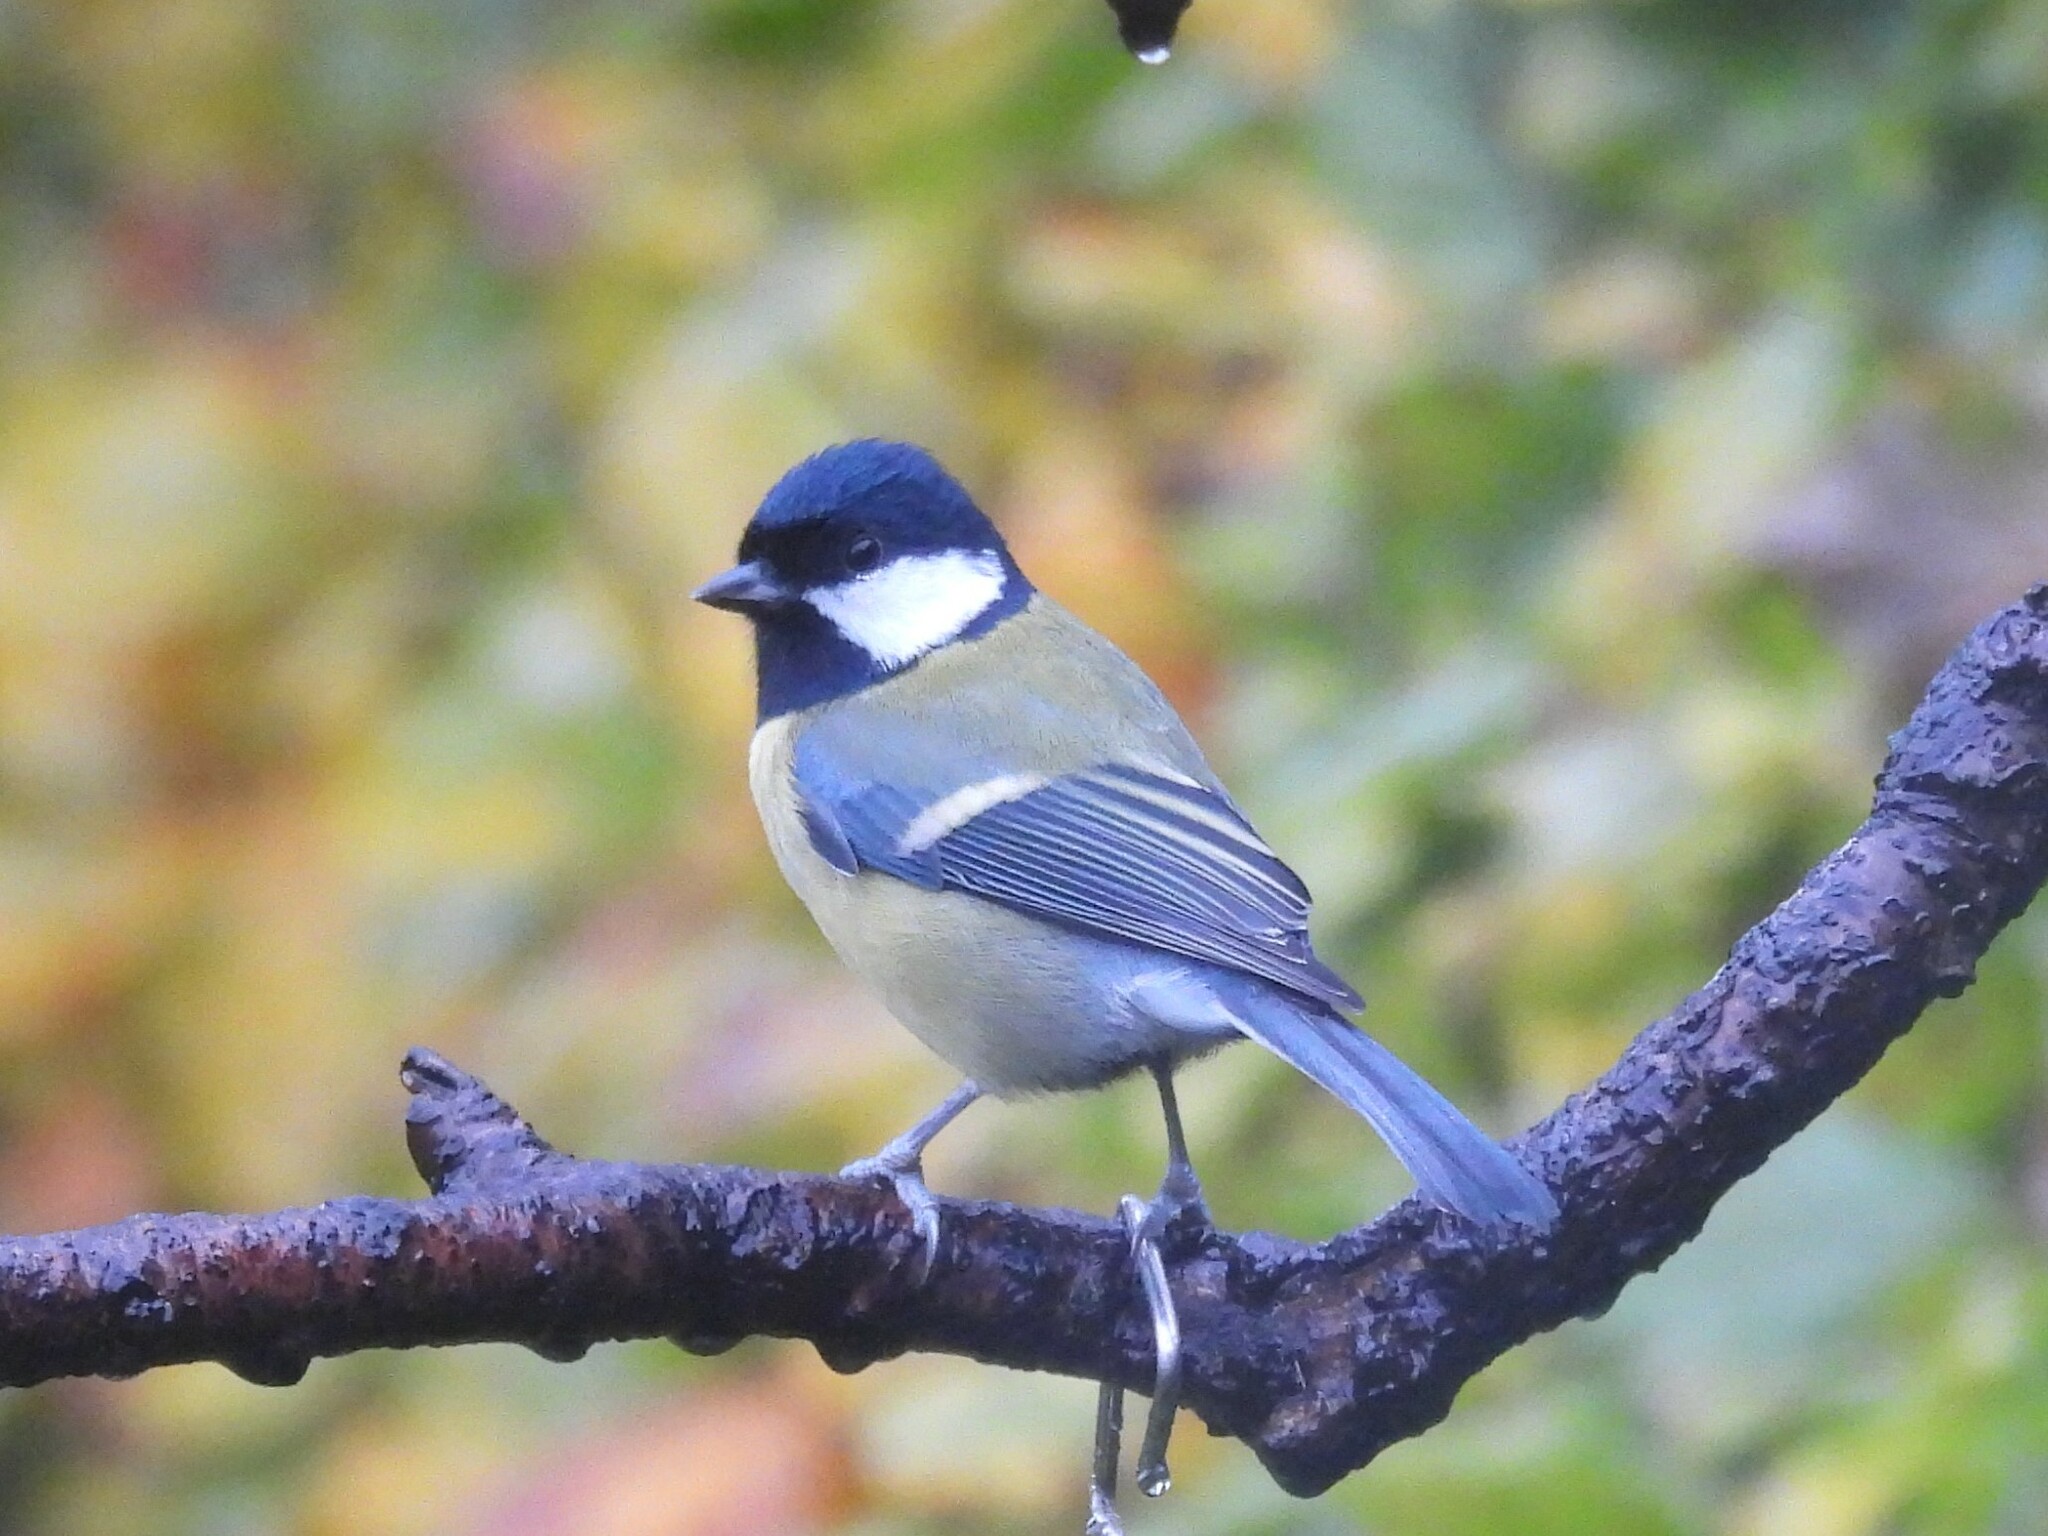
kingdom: Animalia
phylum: Chordata
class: Aves
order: Passeriformes
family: Paridae
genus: Parus
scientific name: Parus major
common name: Great tit
